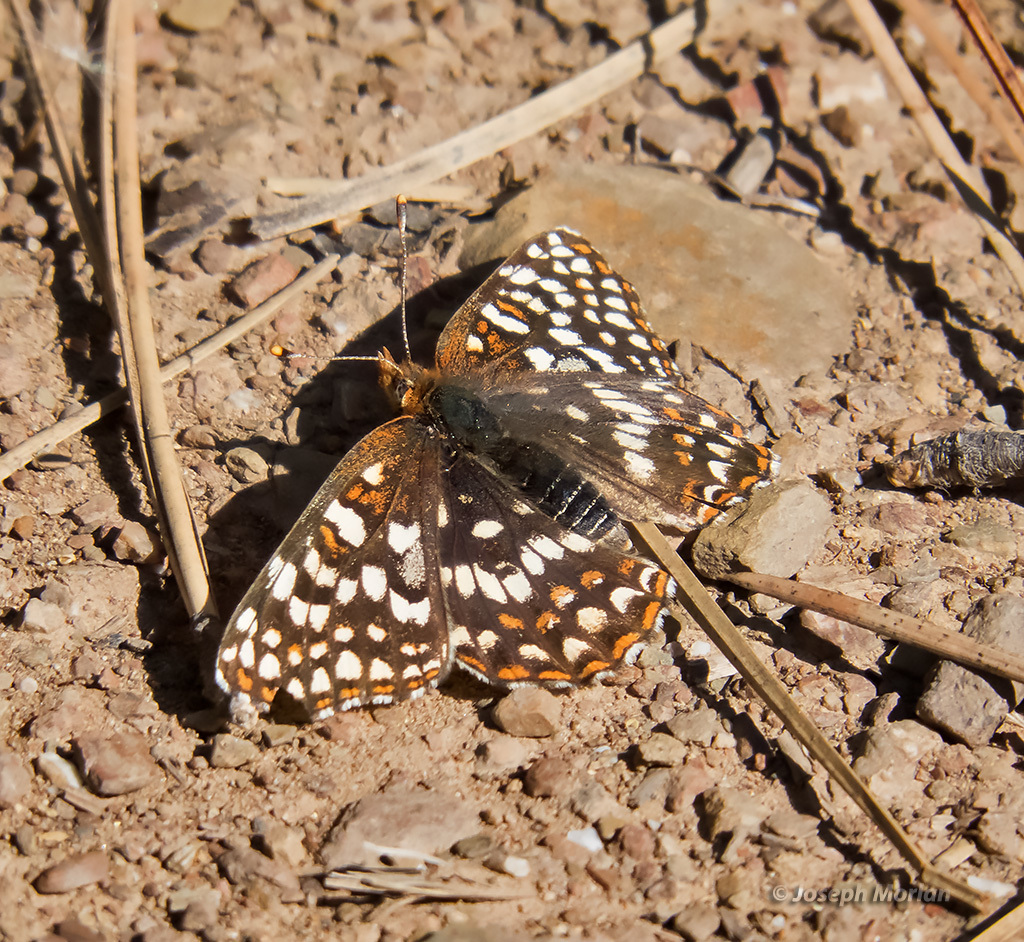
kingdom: Animalia
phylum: Arthropoda
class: Insecta
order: Lepidoptera
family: Nymphalidae
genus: Chlosyne
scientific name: Chlosyne palla
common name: Northern checkerspot
